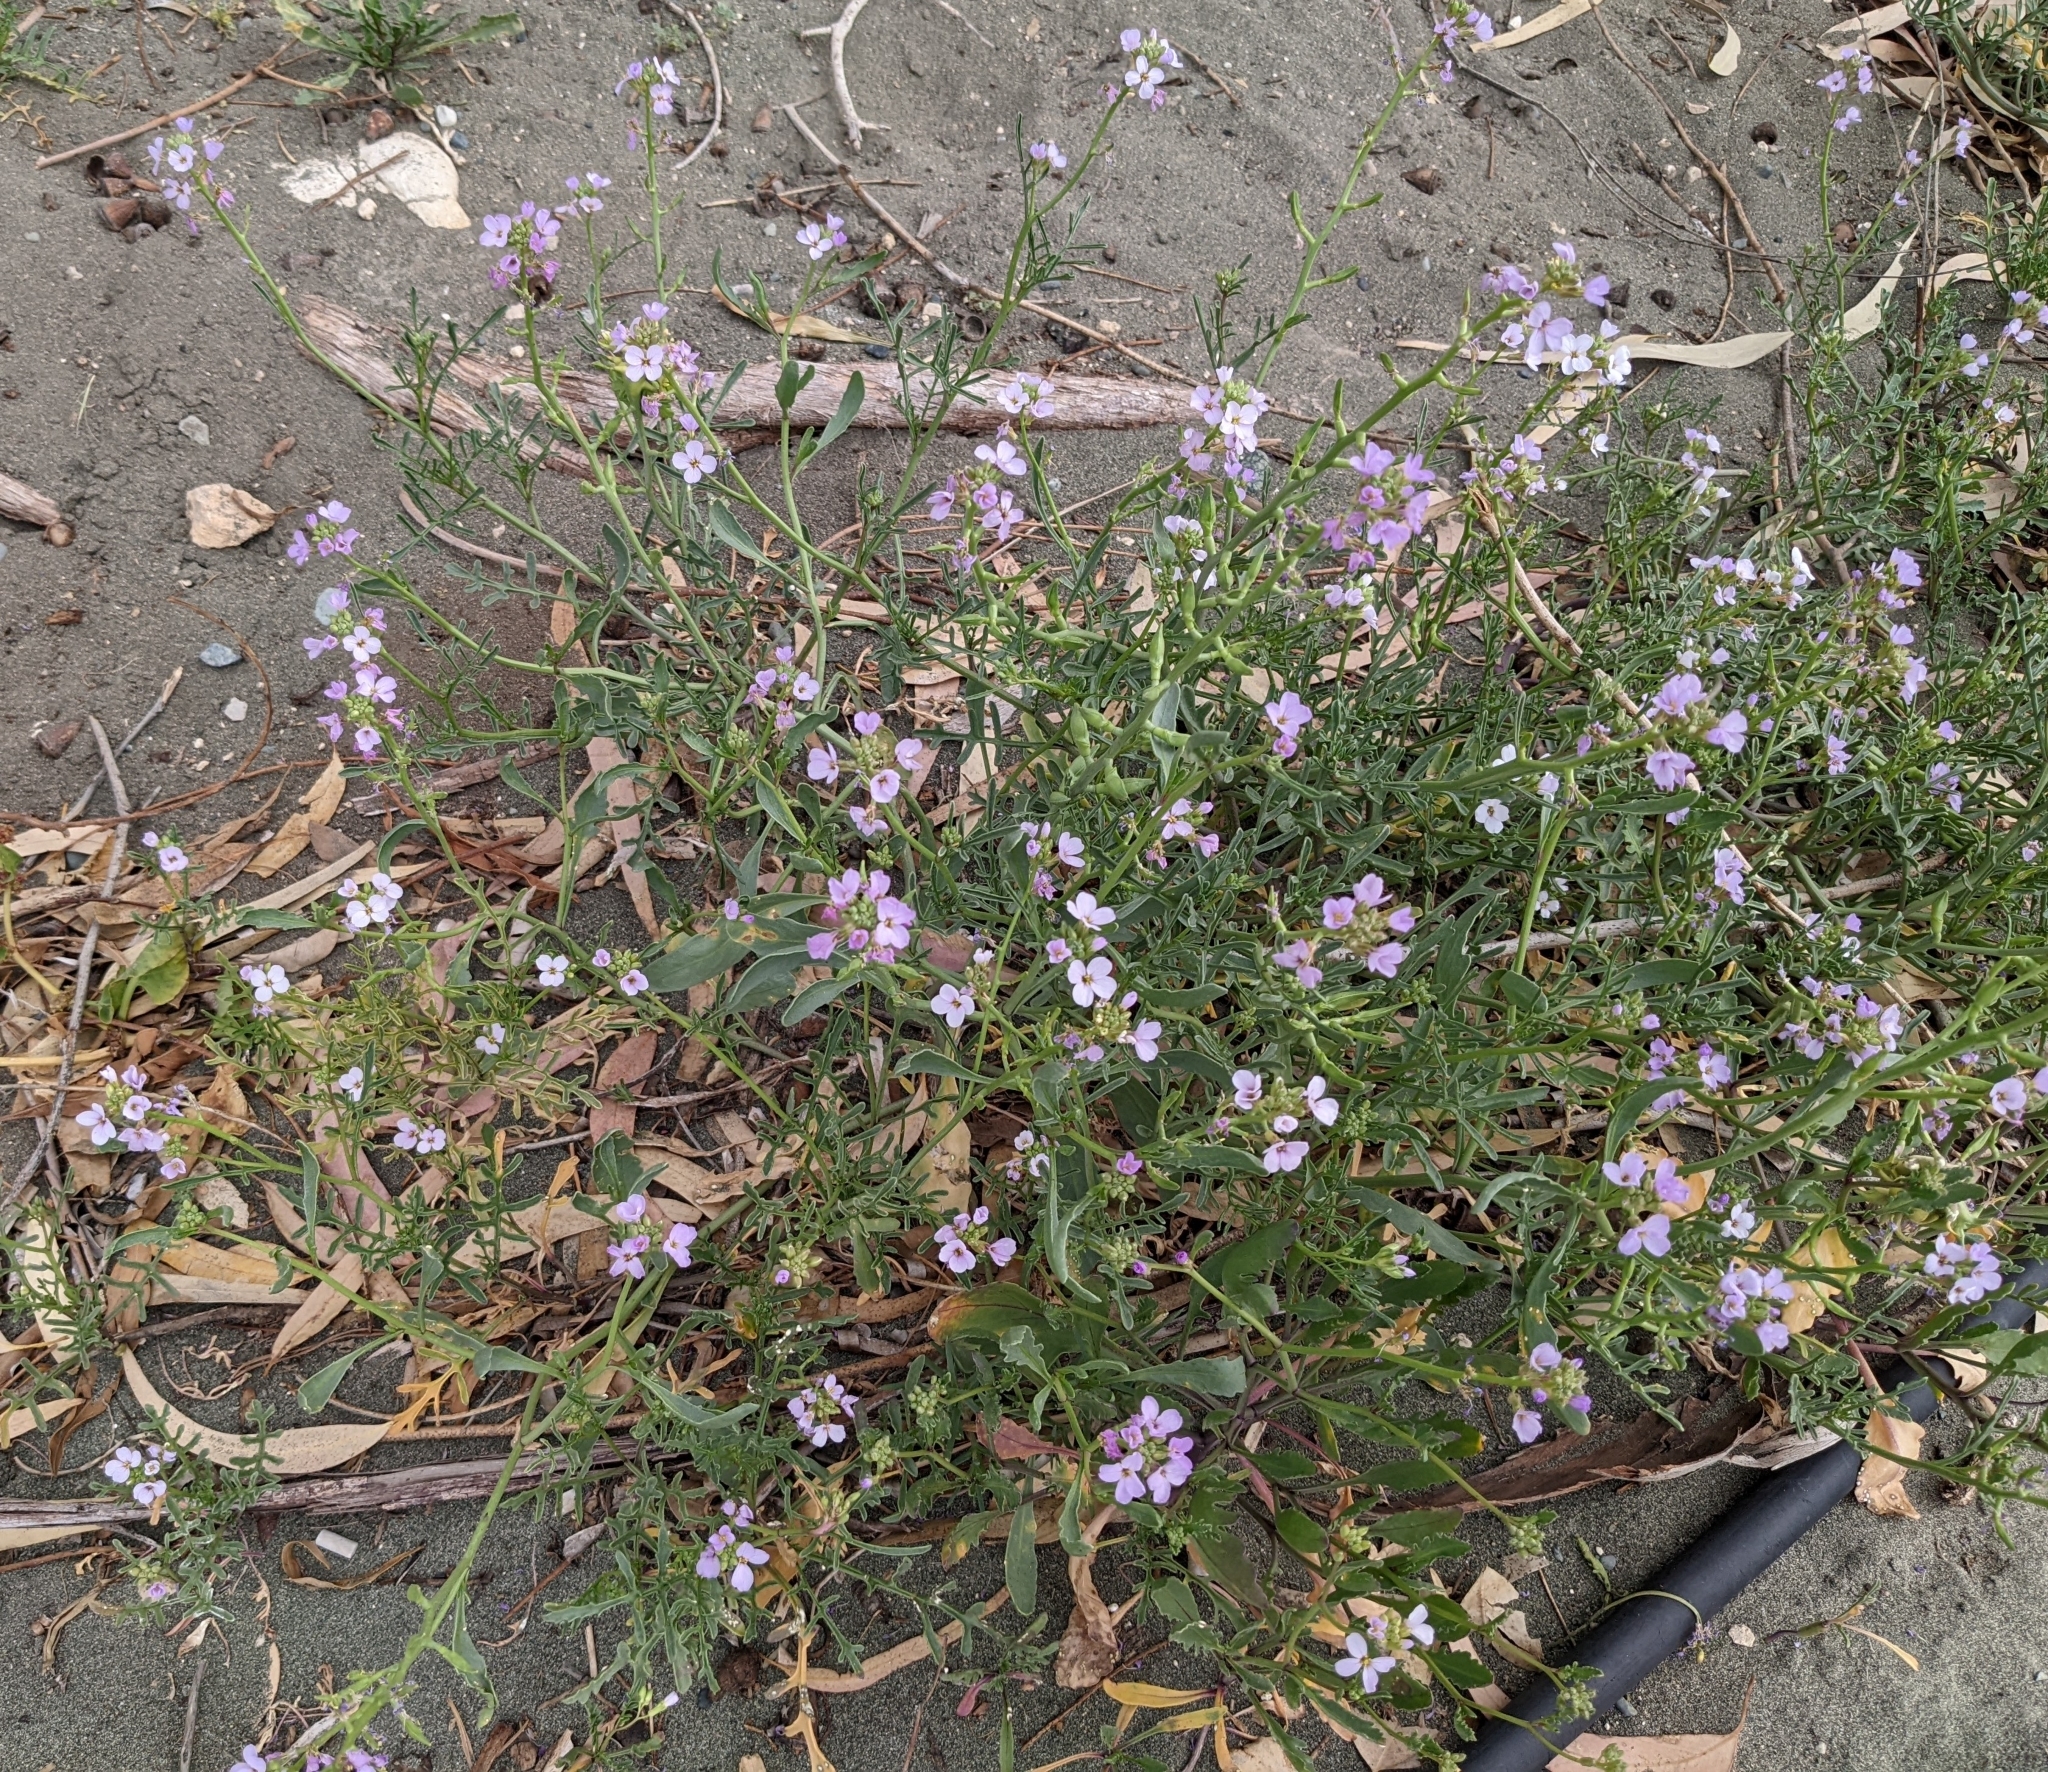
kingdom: Plantae
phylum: Tracheophyta
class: Magnoliopsida
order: Brassicales
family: Brassicaceae
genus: Cakile
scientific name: Cakile maritima
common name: Sea rocket
